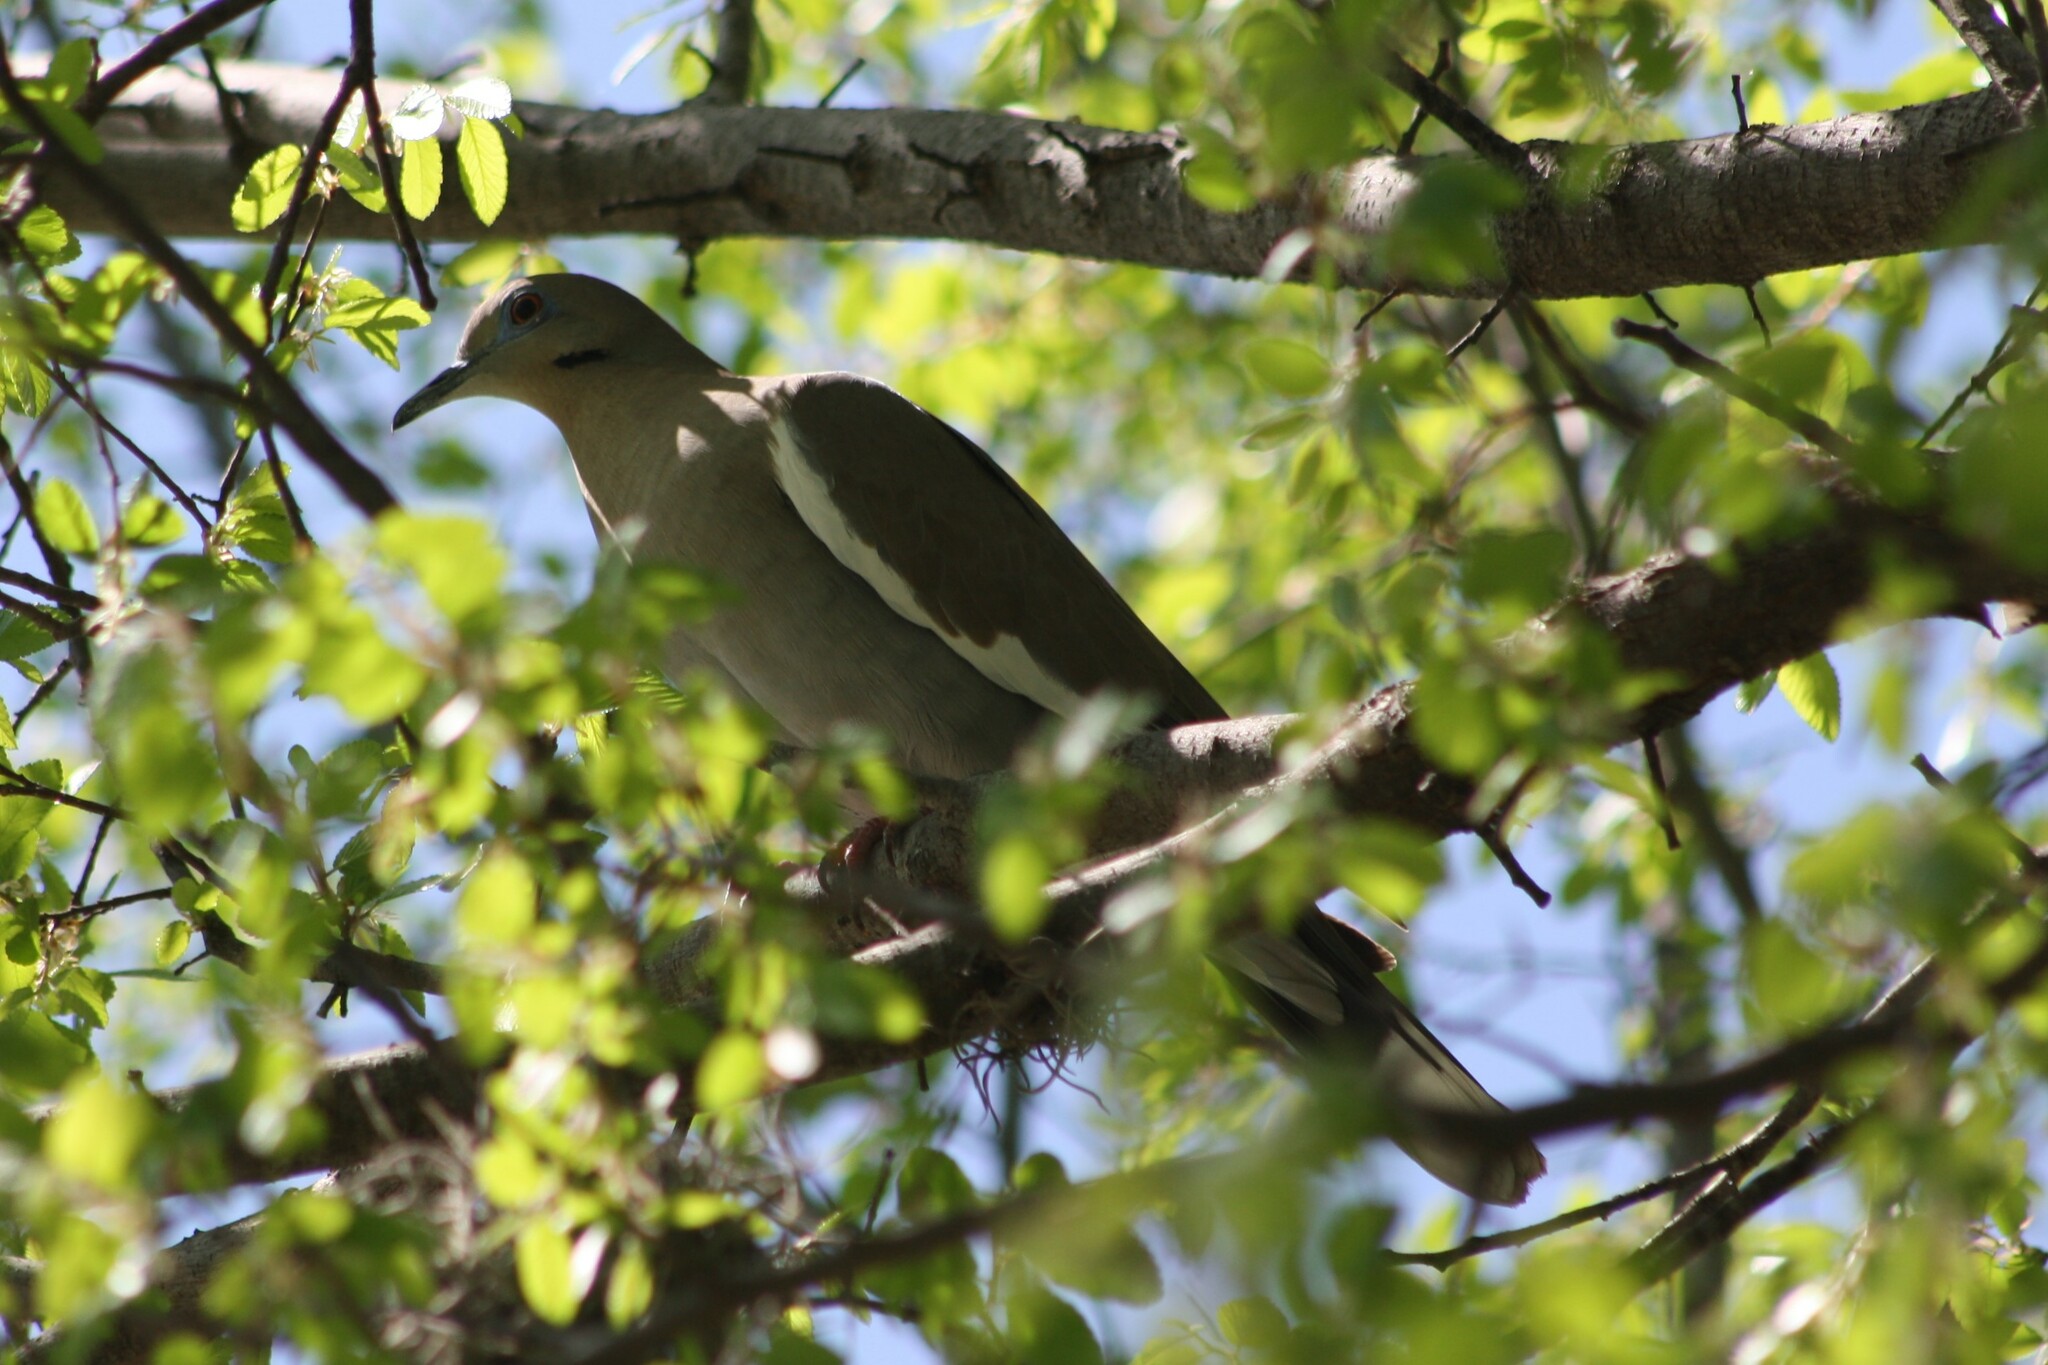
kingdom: Animalia
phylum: Chordata
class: Aves
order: Columbiformes
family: Columbidae
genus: Zenaida
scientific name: Zenaida asiatica
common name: White-winged dove
